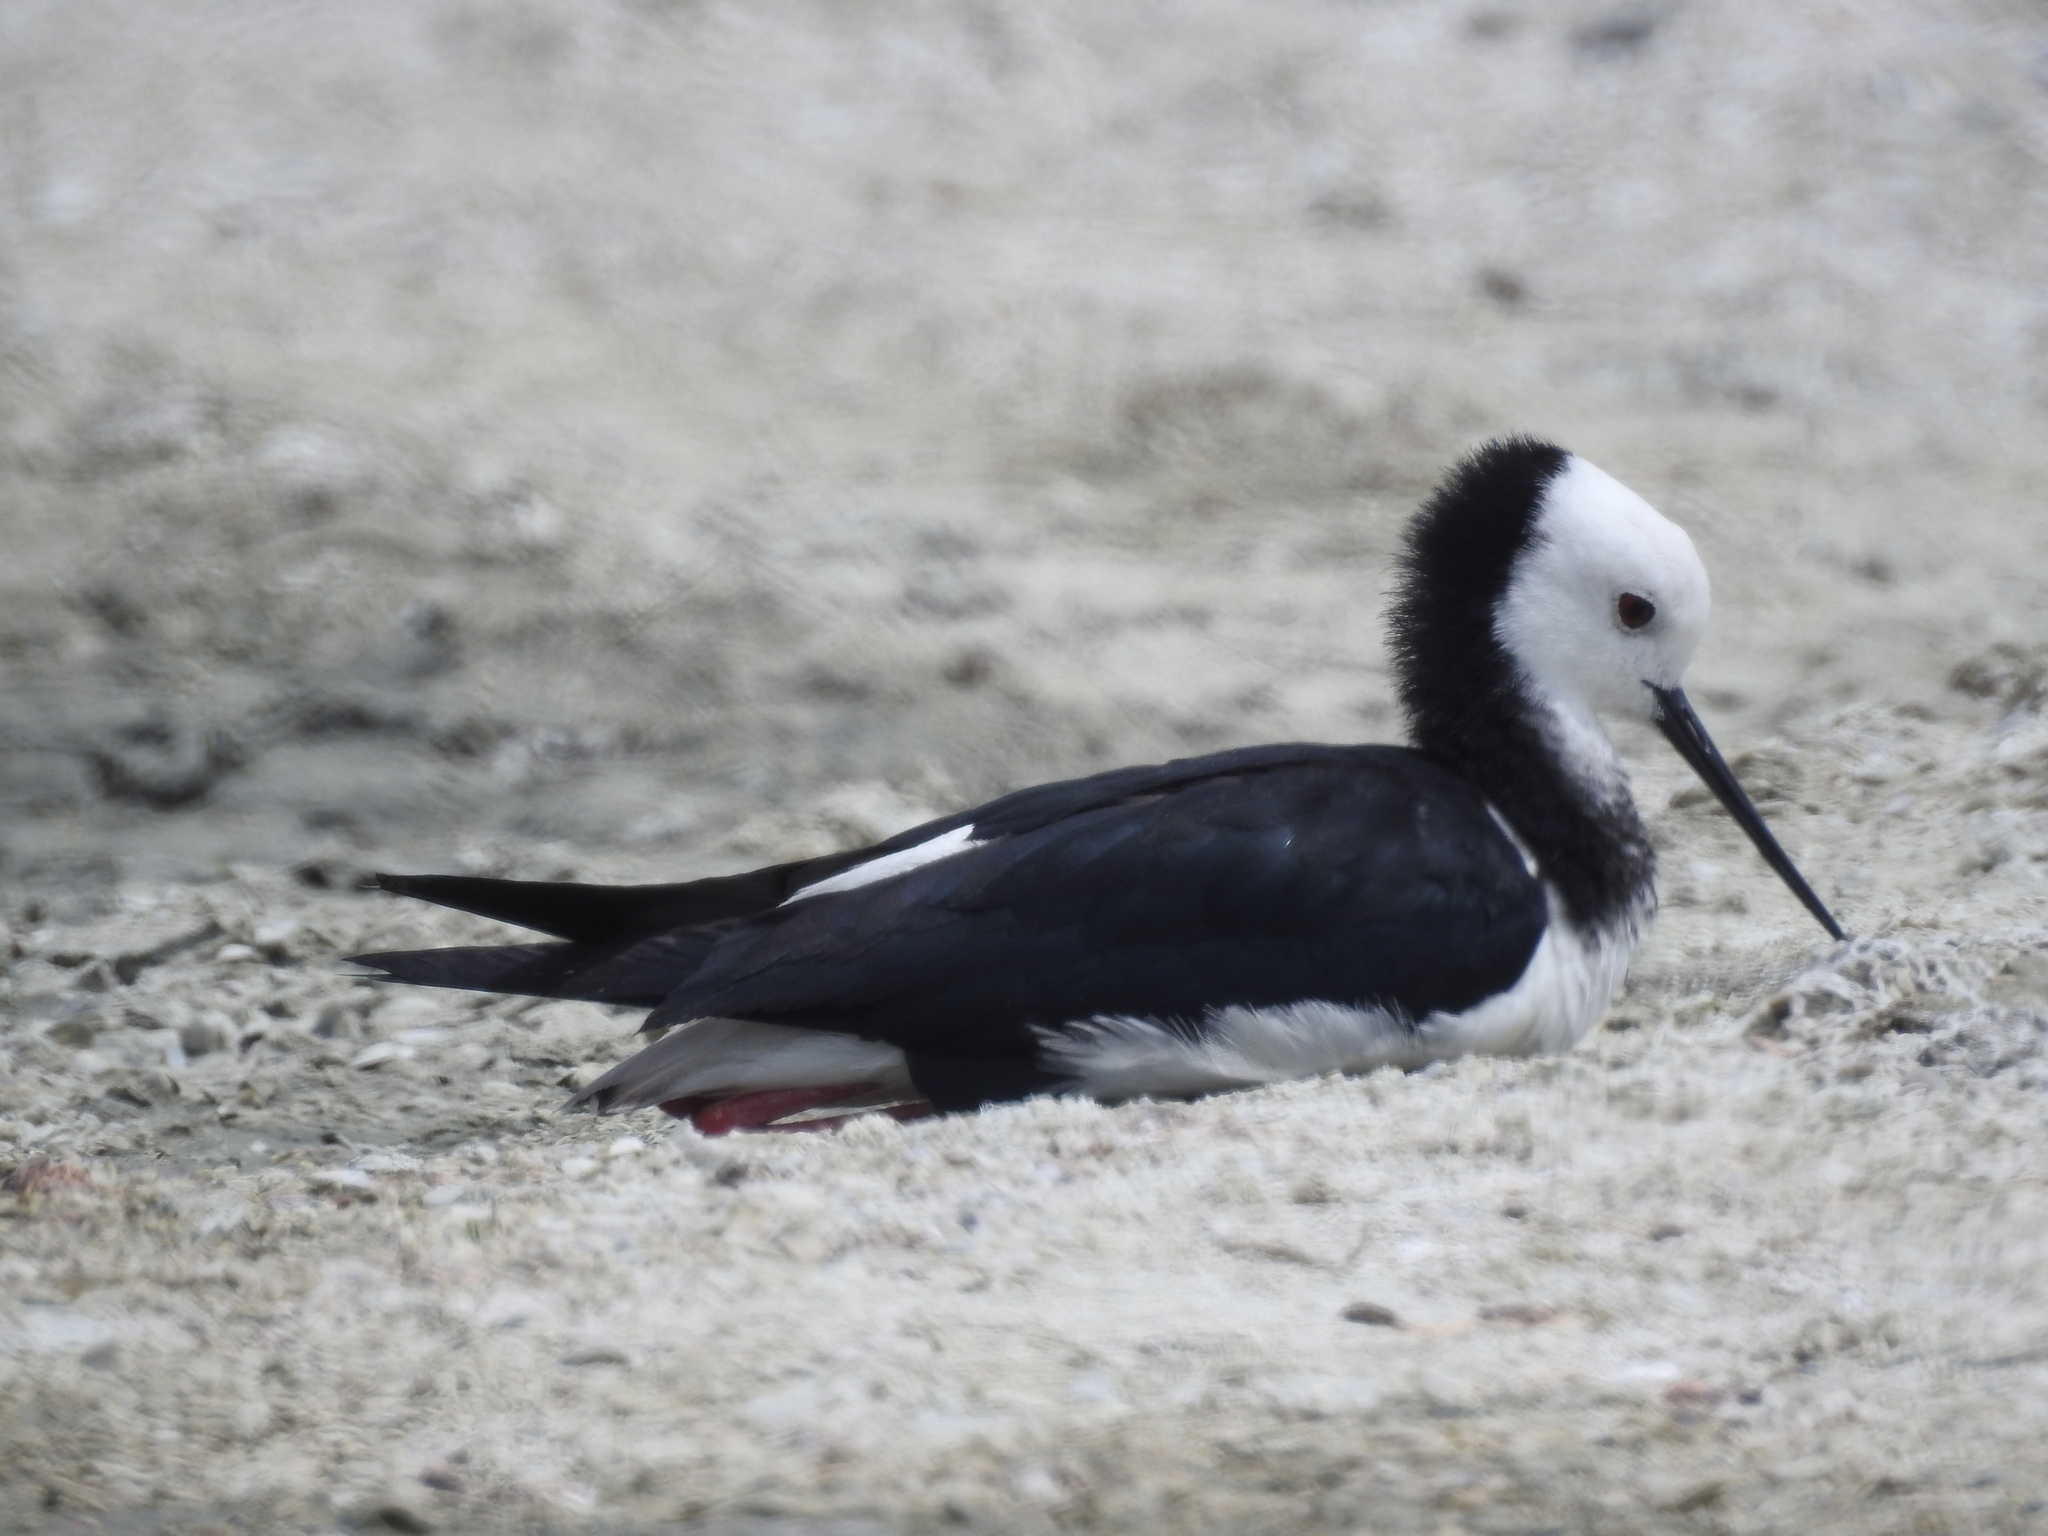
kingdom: Animalia
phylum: Chordata
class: Aves
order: Charadriiformes
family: Recurvirostridae
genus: Himantopus
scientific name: Himantopus leucocephalus
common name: White-headed stilt
